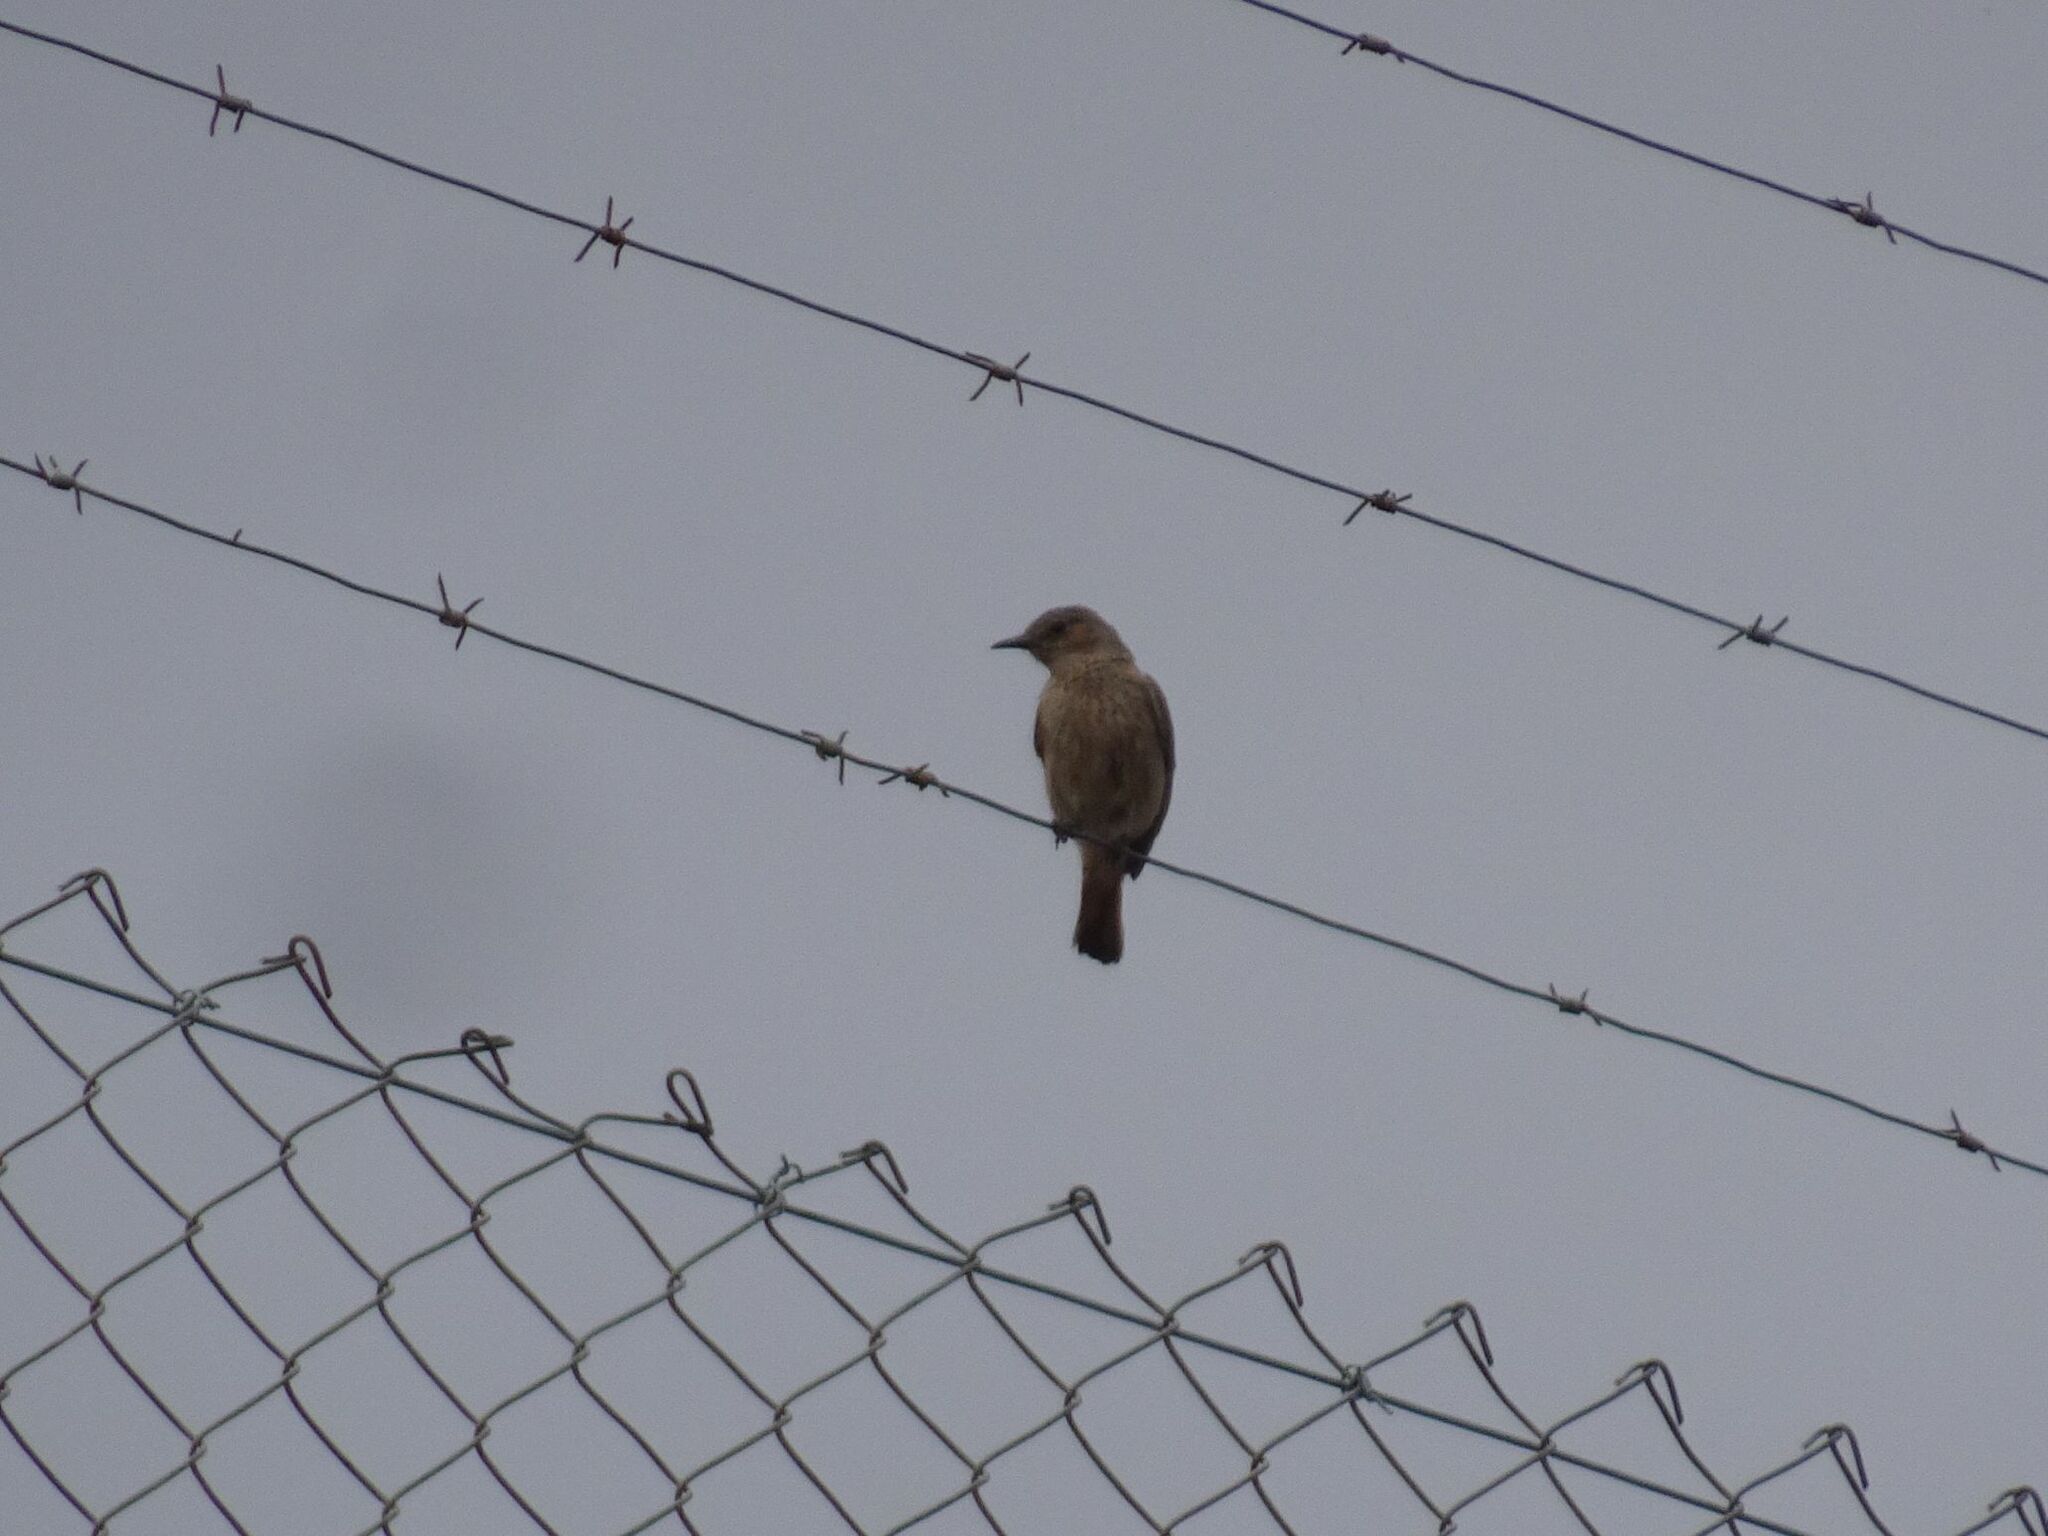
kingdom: Animalia
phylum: Chordata
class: Aves
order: Passeriformes
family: Muscicapidae
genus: Oenanthe
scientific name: Oenanthe familiaris
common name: Familiar chat
